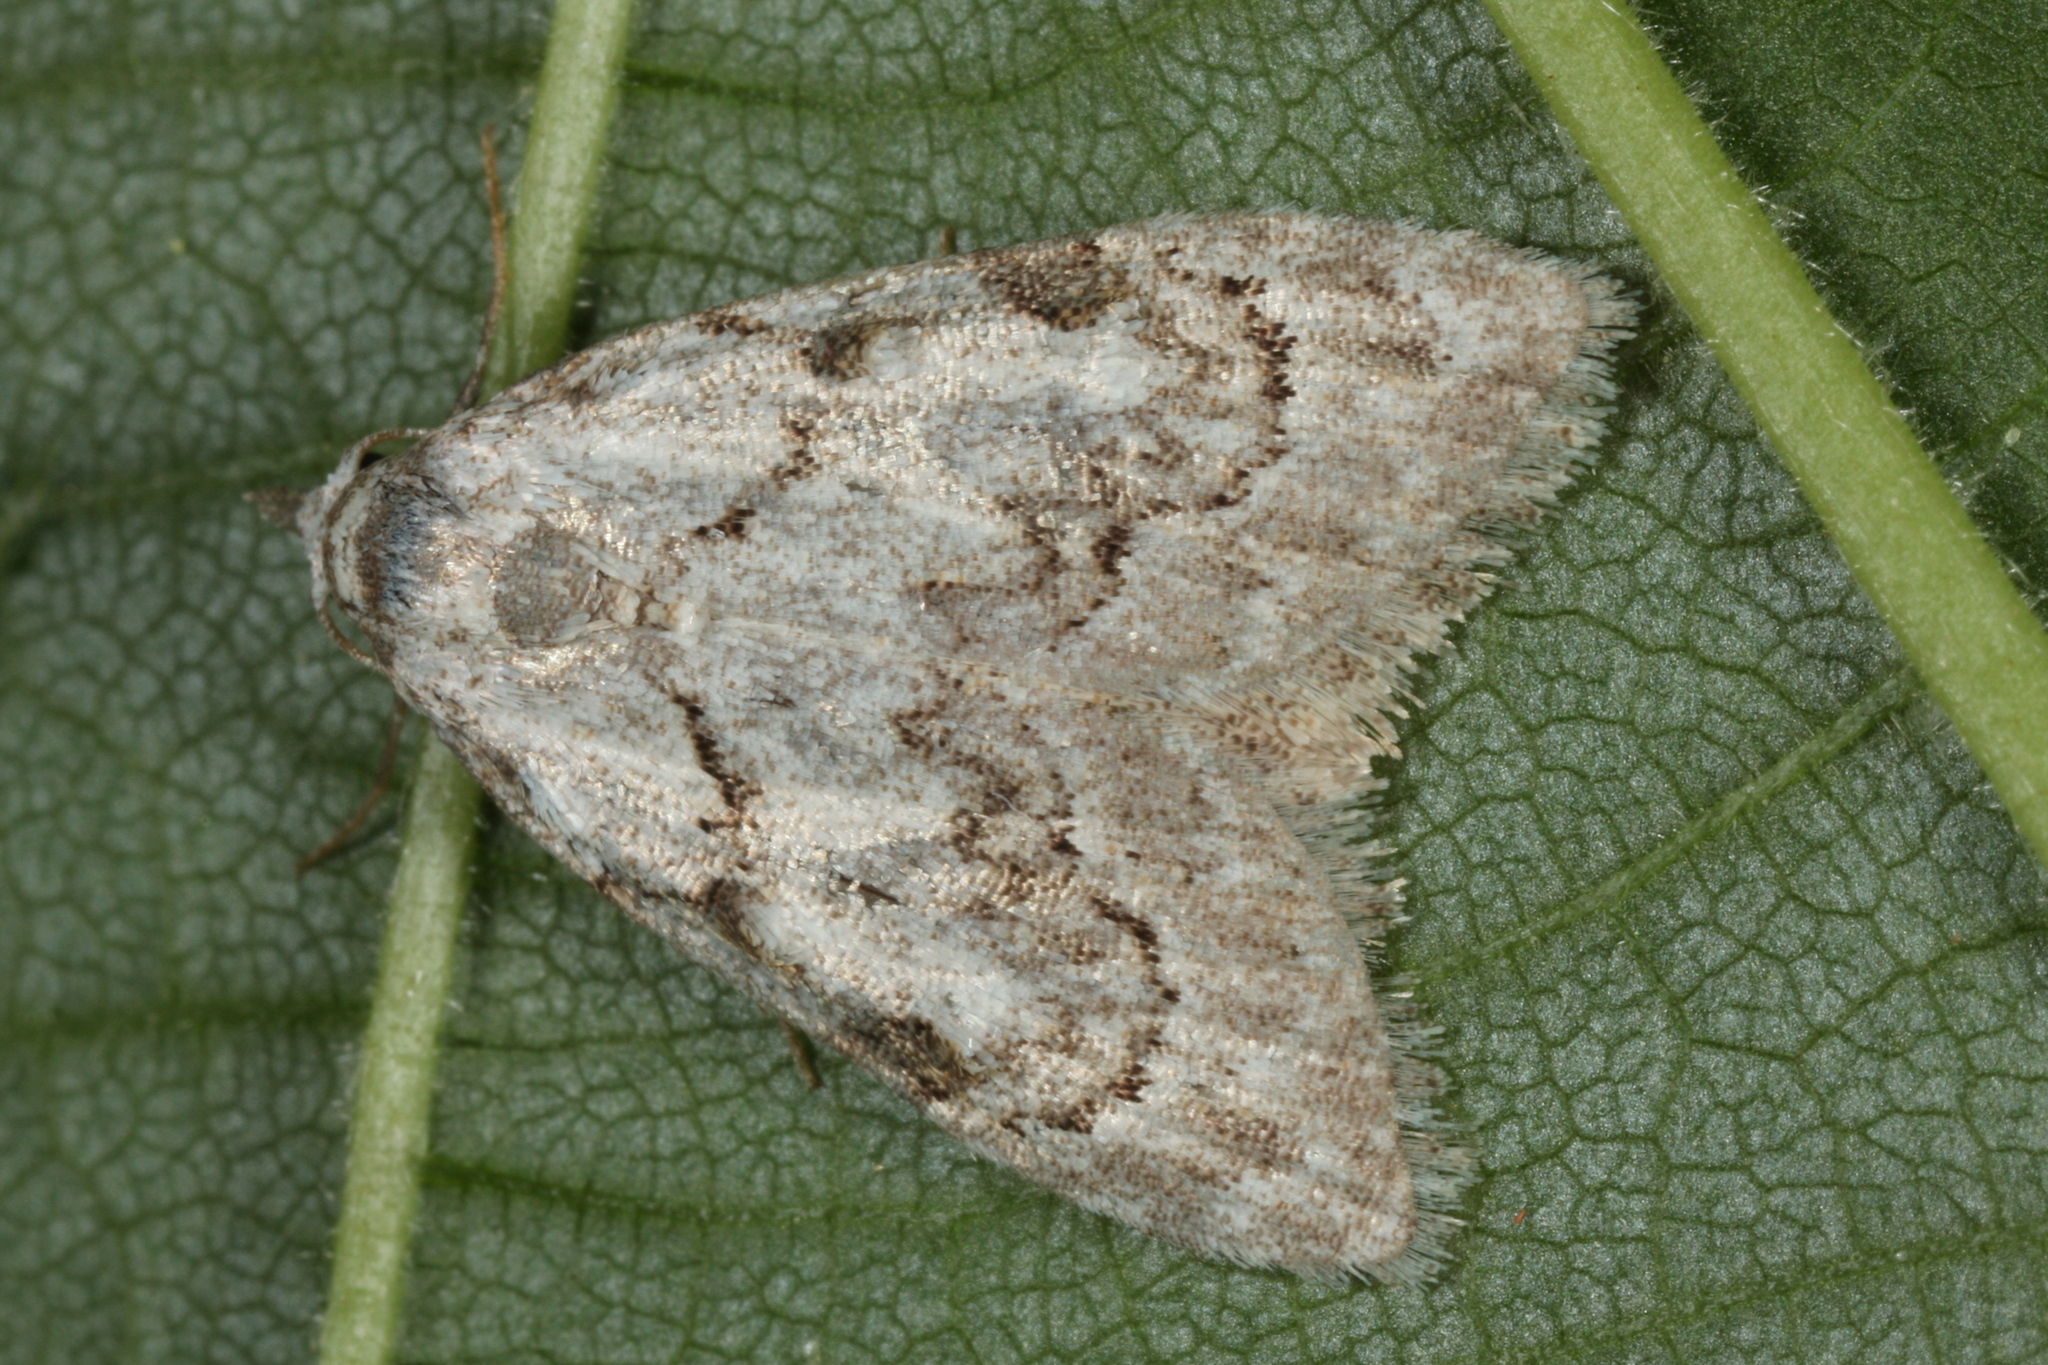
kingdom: Animalia
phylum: Arthropoda
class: Insecta
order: Lepidoptera
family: Nolidae
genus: Nola
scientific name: Nola confusalis
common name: Least black arches
